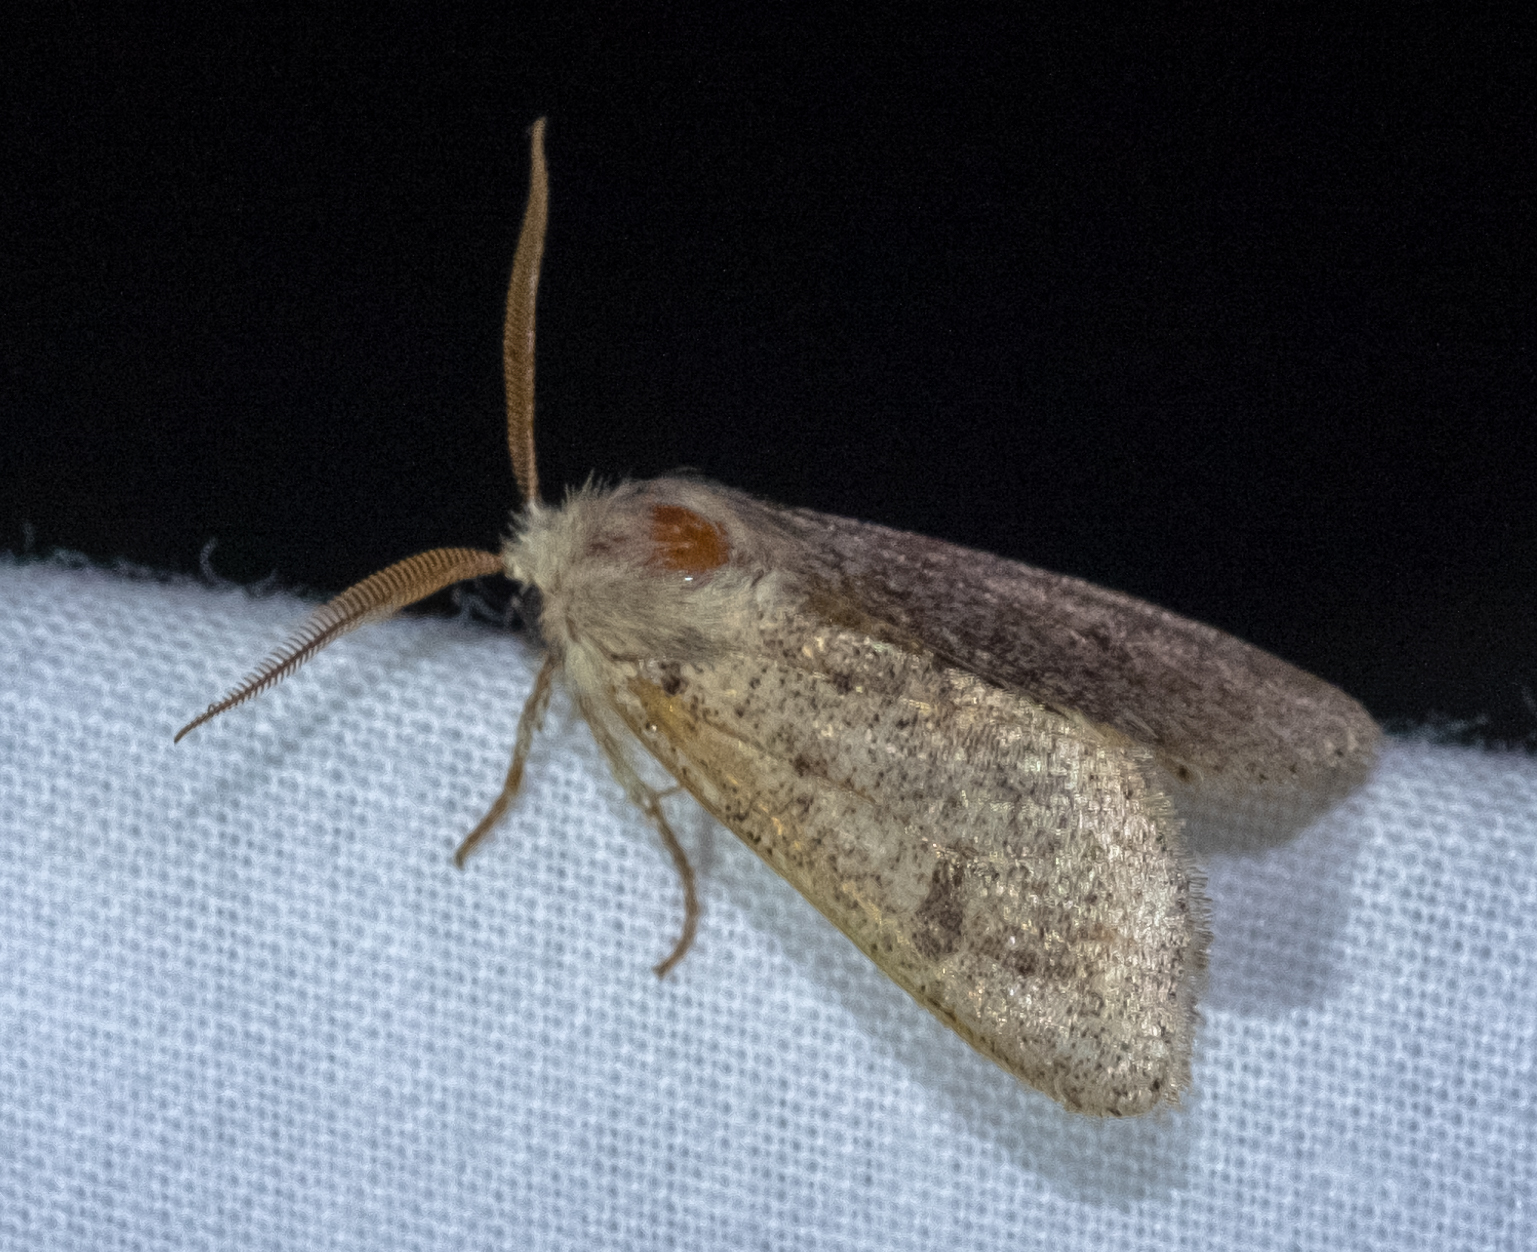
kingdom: Animalia
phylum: Arthropoda
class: Insecta
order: Lepidoptera
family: Noctuidae
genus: Orthosia
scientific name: Orthosia cruda
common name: Small quaker
